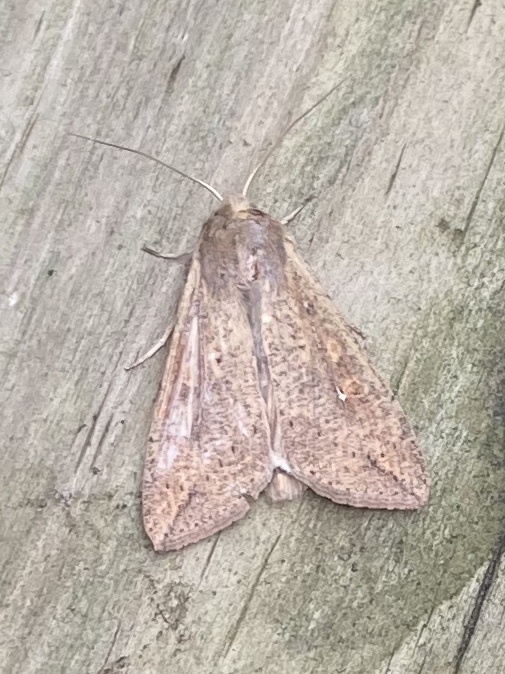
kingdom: Animalia
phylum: Arthropoda
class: Insecta
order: Lepidoptera
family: Noctuidae
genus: Mythimna
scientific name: Mythimna unipuncta
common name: White-speck
